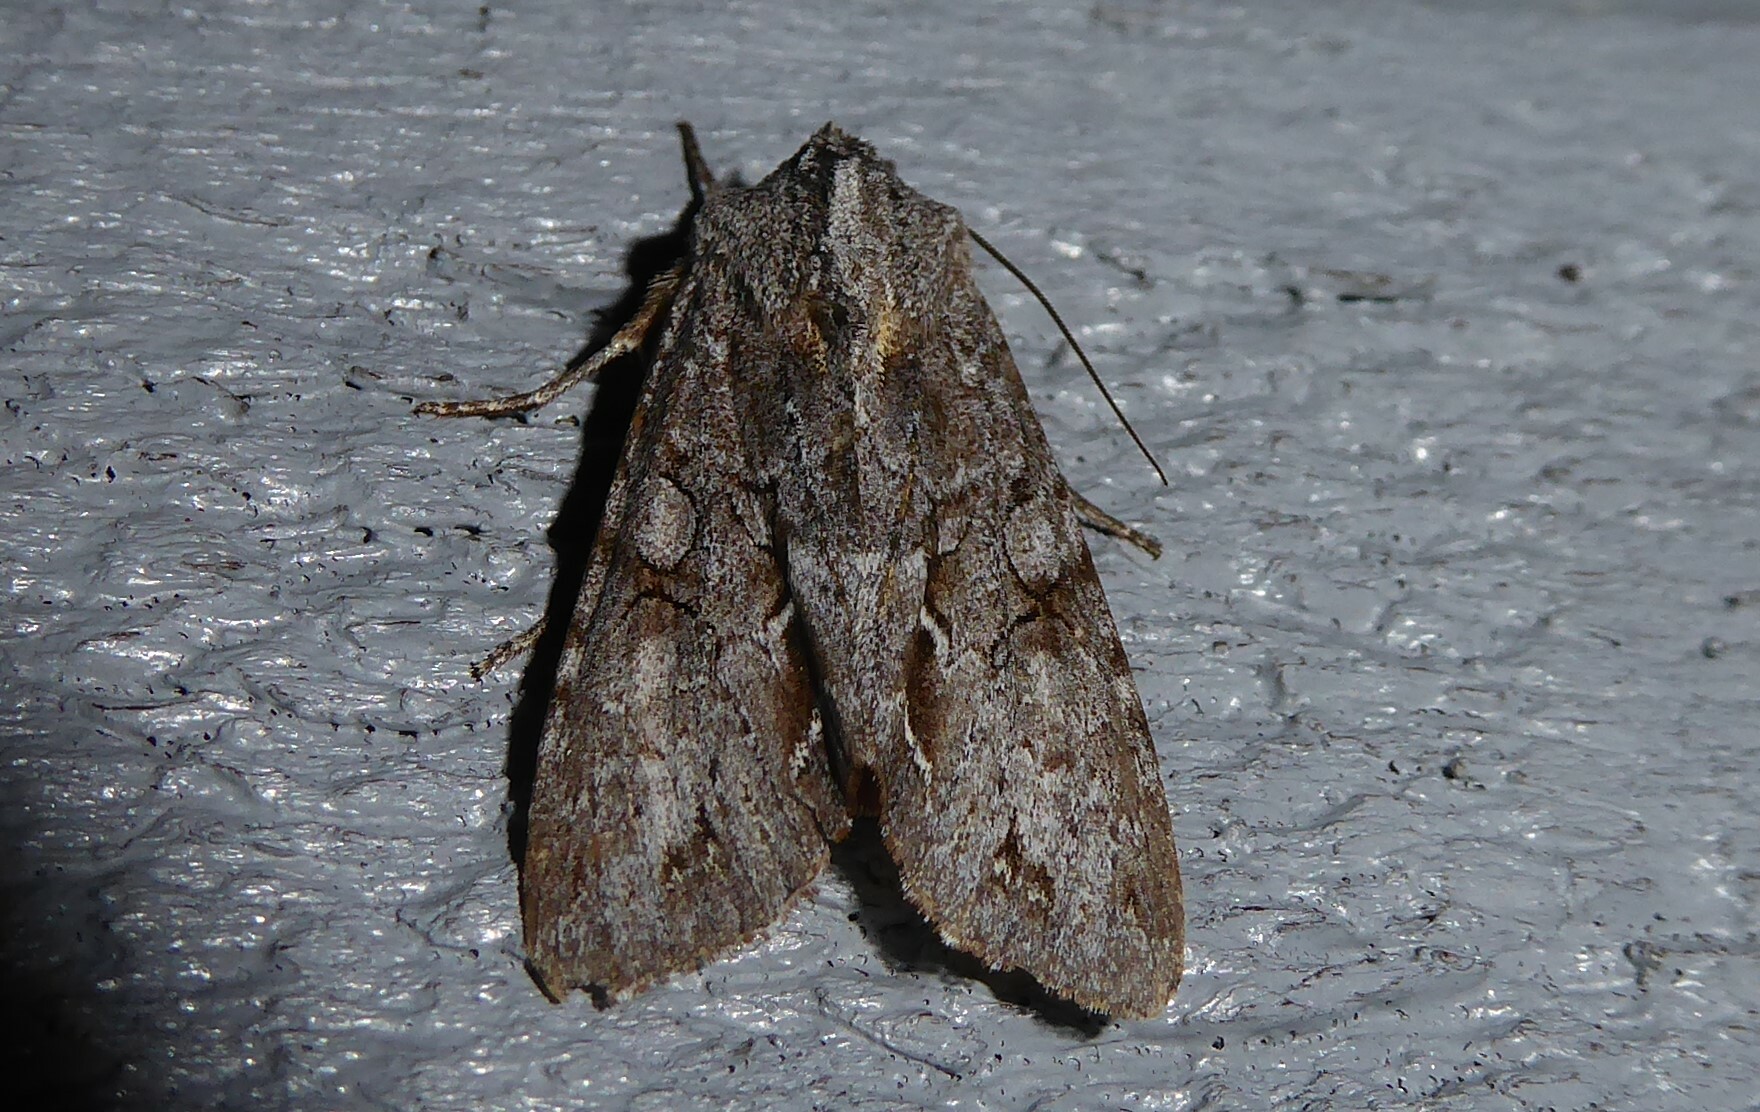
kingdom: Animalia
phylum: Arthropoda
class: Insecta
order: Lepidoptera
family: Noctuidae
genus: Ichneutica
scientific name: Ichneutica
